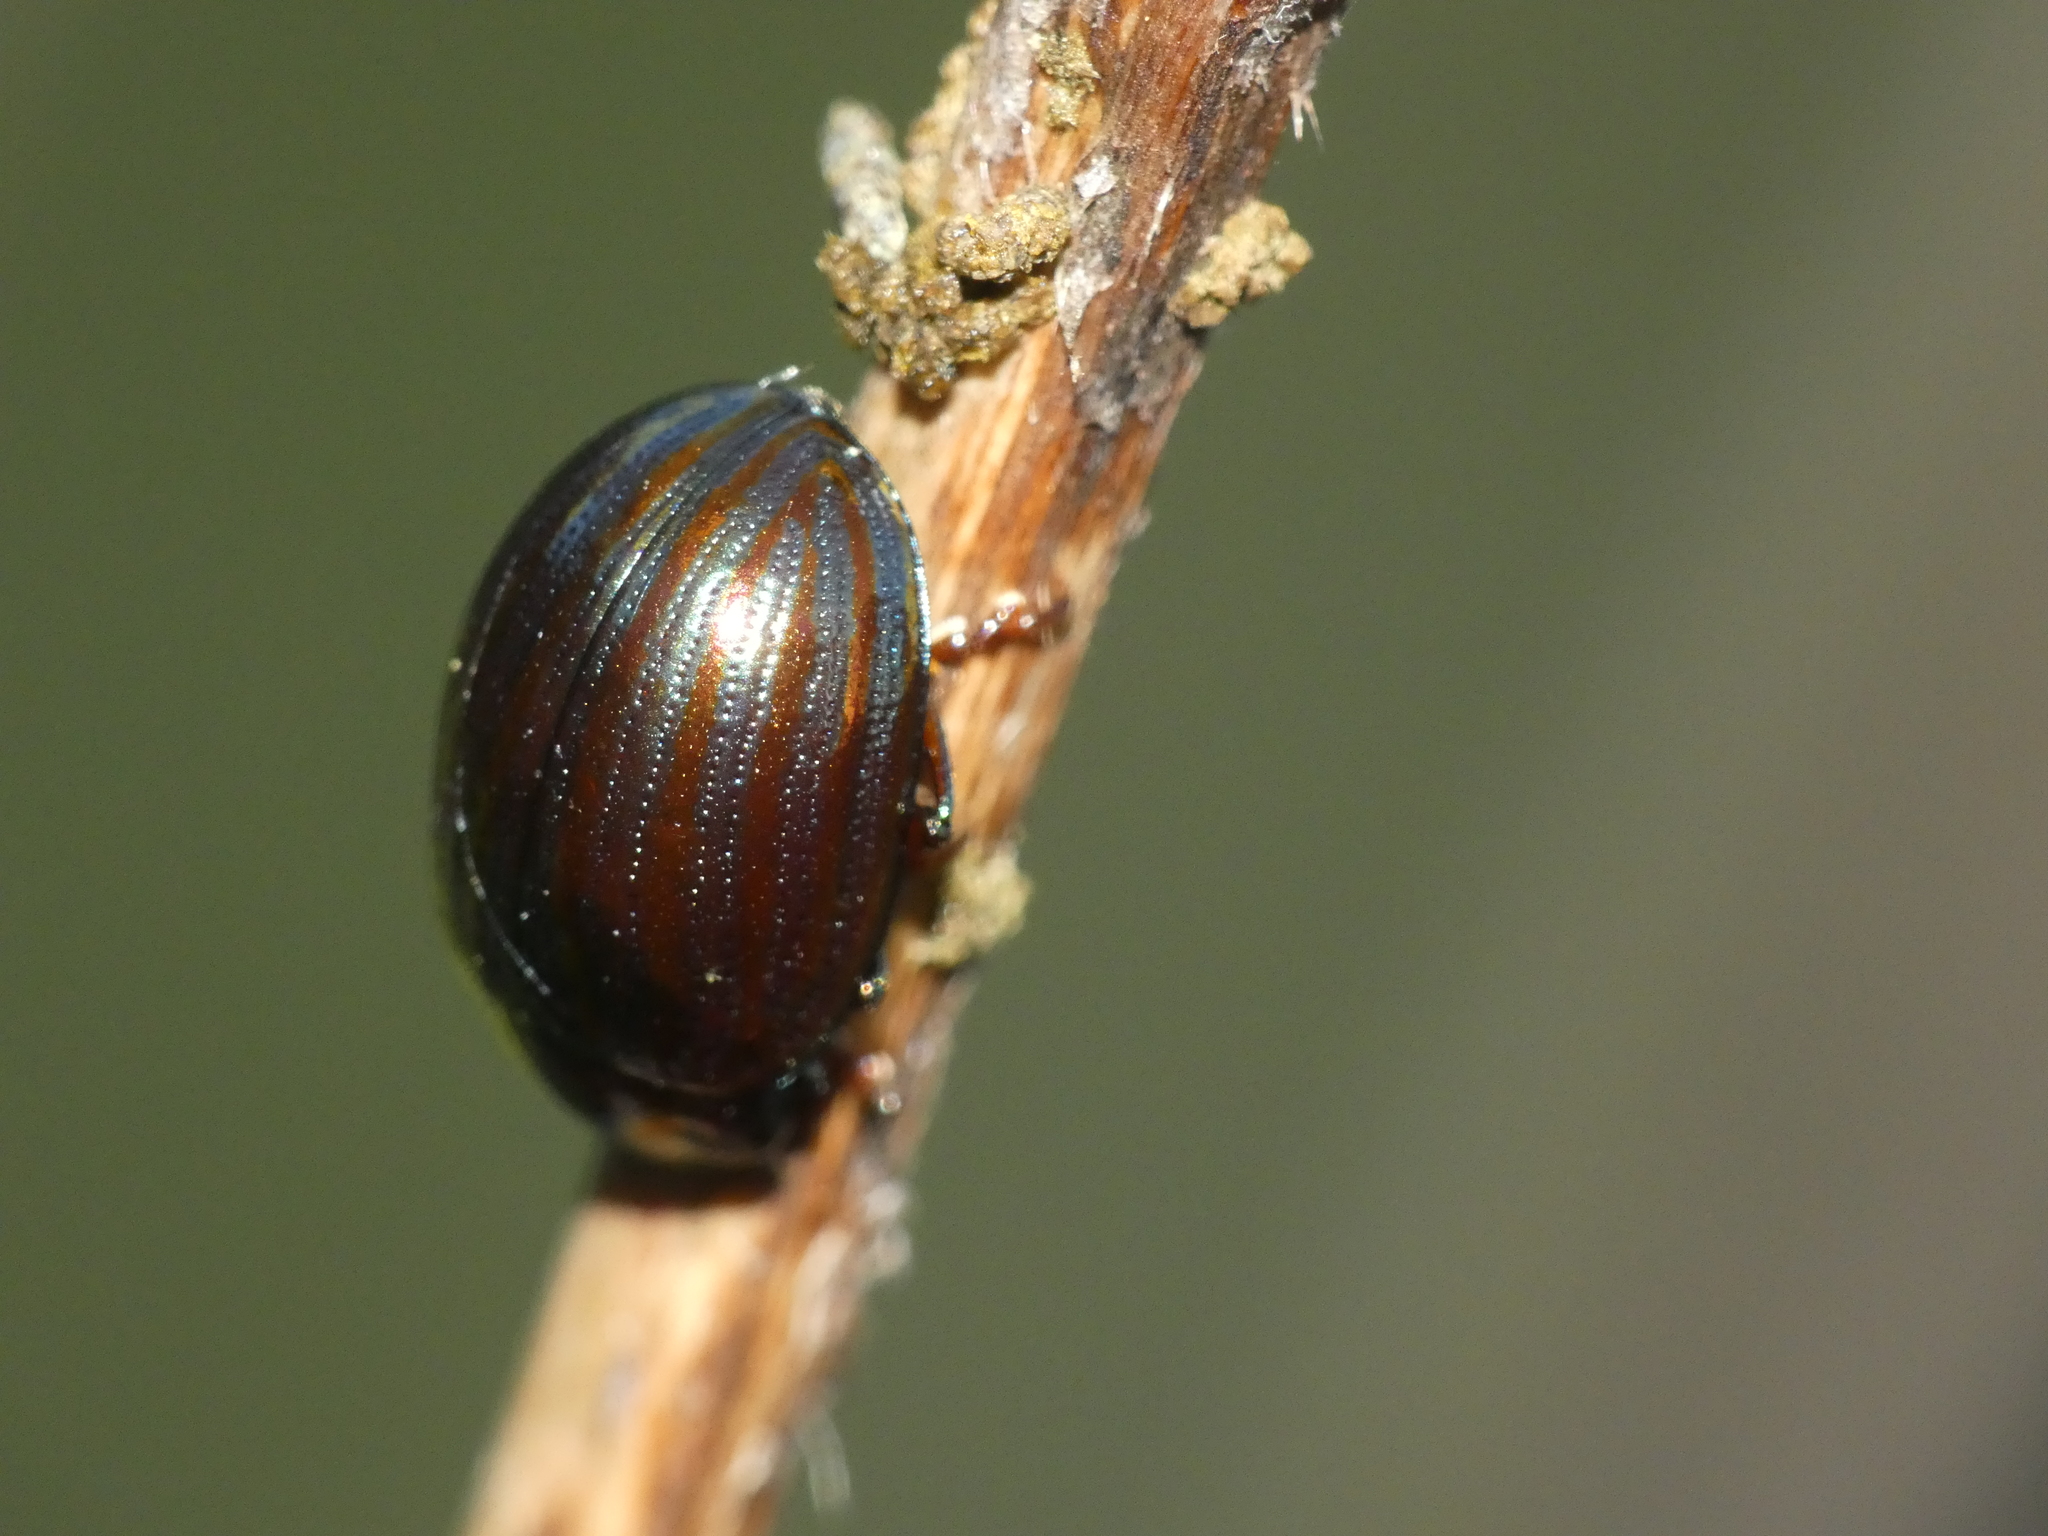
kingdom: Animalia
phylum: Arthropoda
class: Insecta
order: Coleoptera
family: Chrysomelidae
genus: Chrysolina
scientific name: Chrysolina americana
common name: Rosemary beetle
